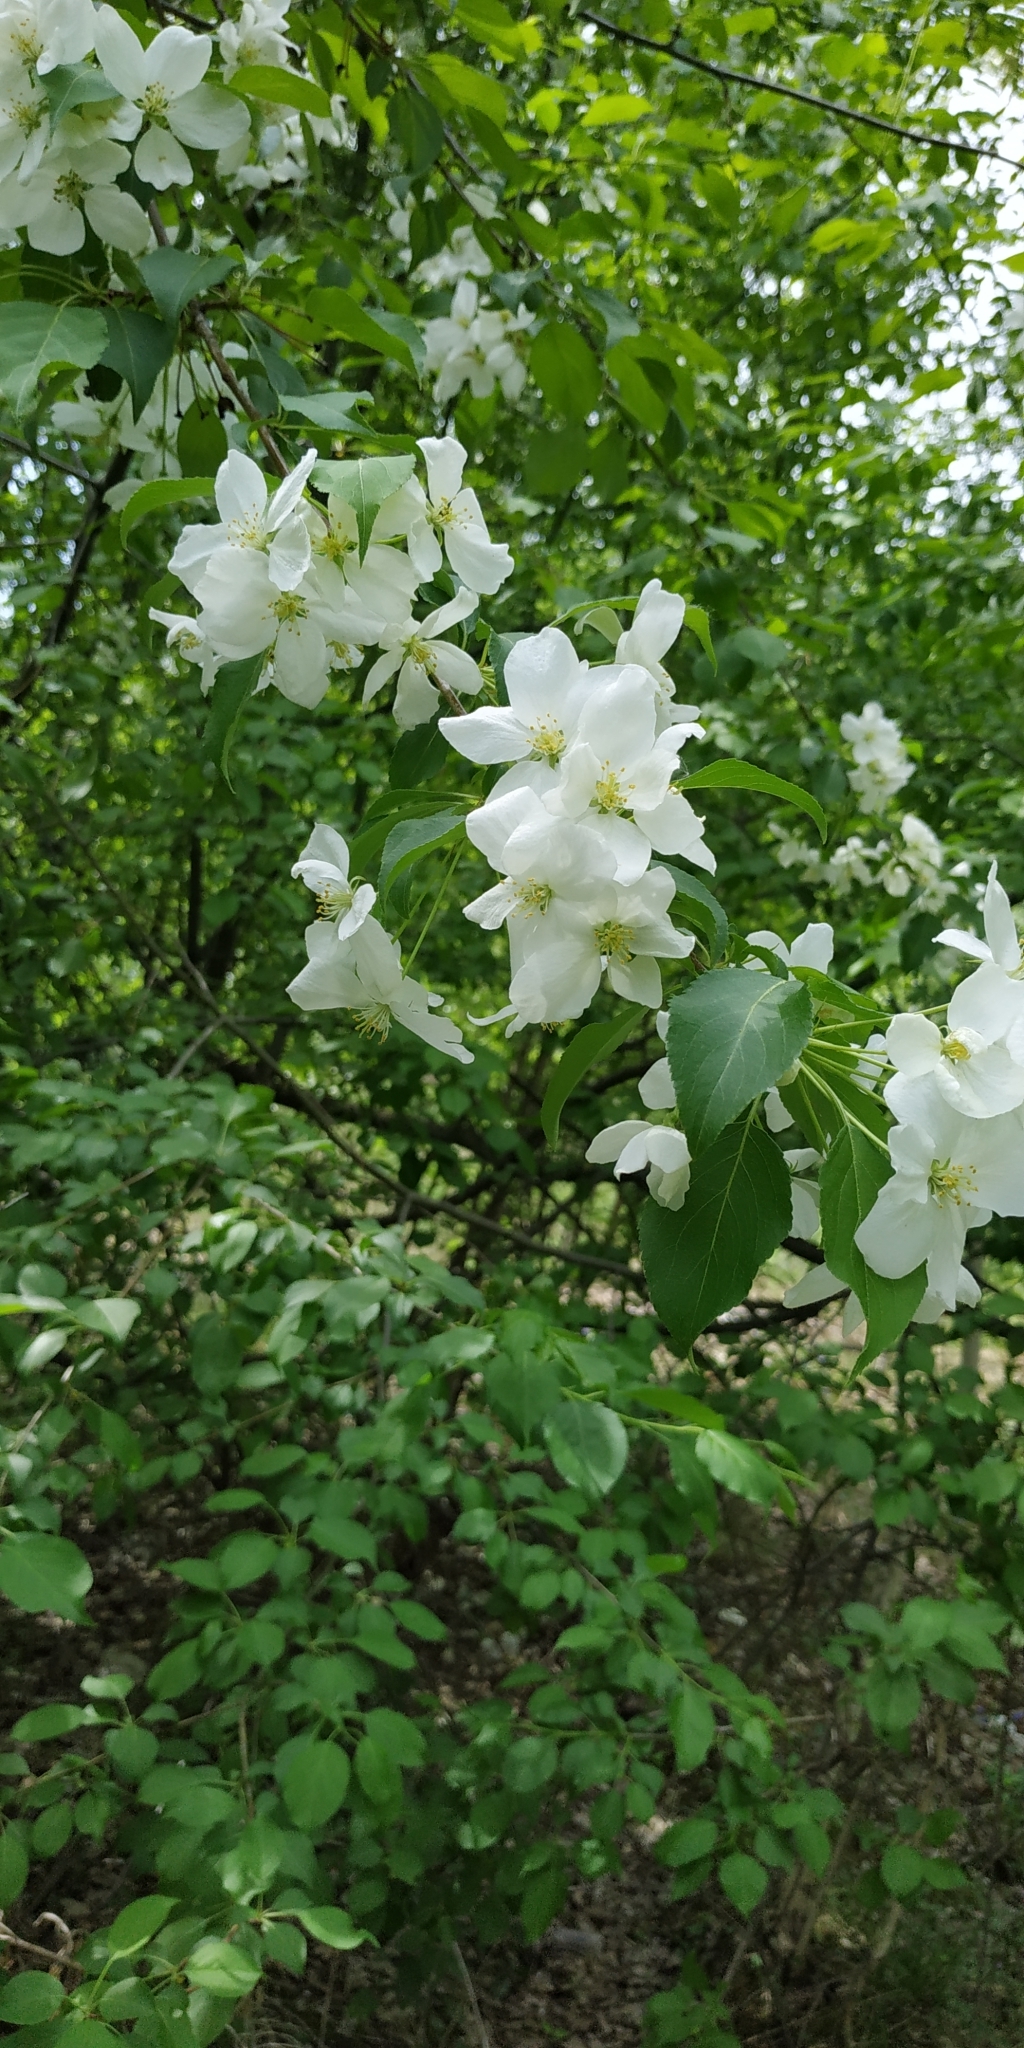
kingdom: Plantae
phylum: Tracheophyta
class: Magnoliopsida
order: Rosales
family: Rosaceae
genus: Malus
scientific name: Malus baccata
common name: Siberian crab
